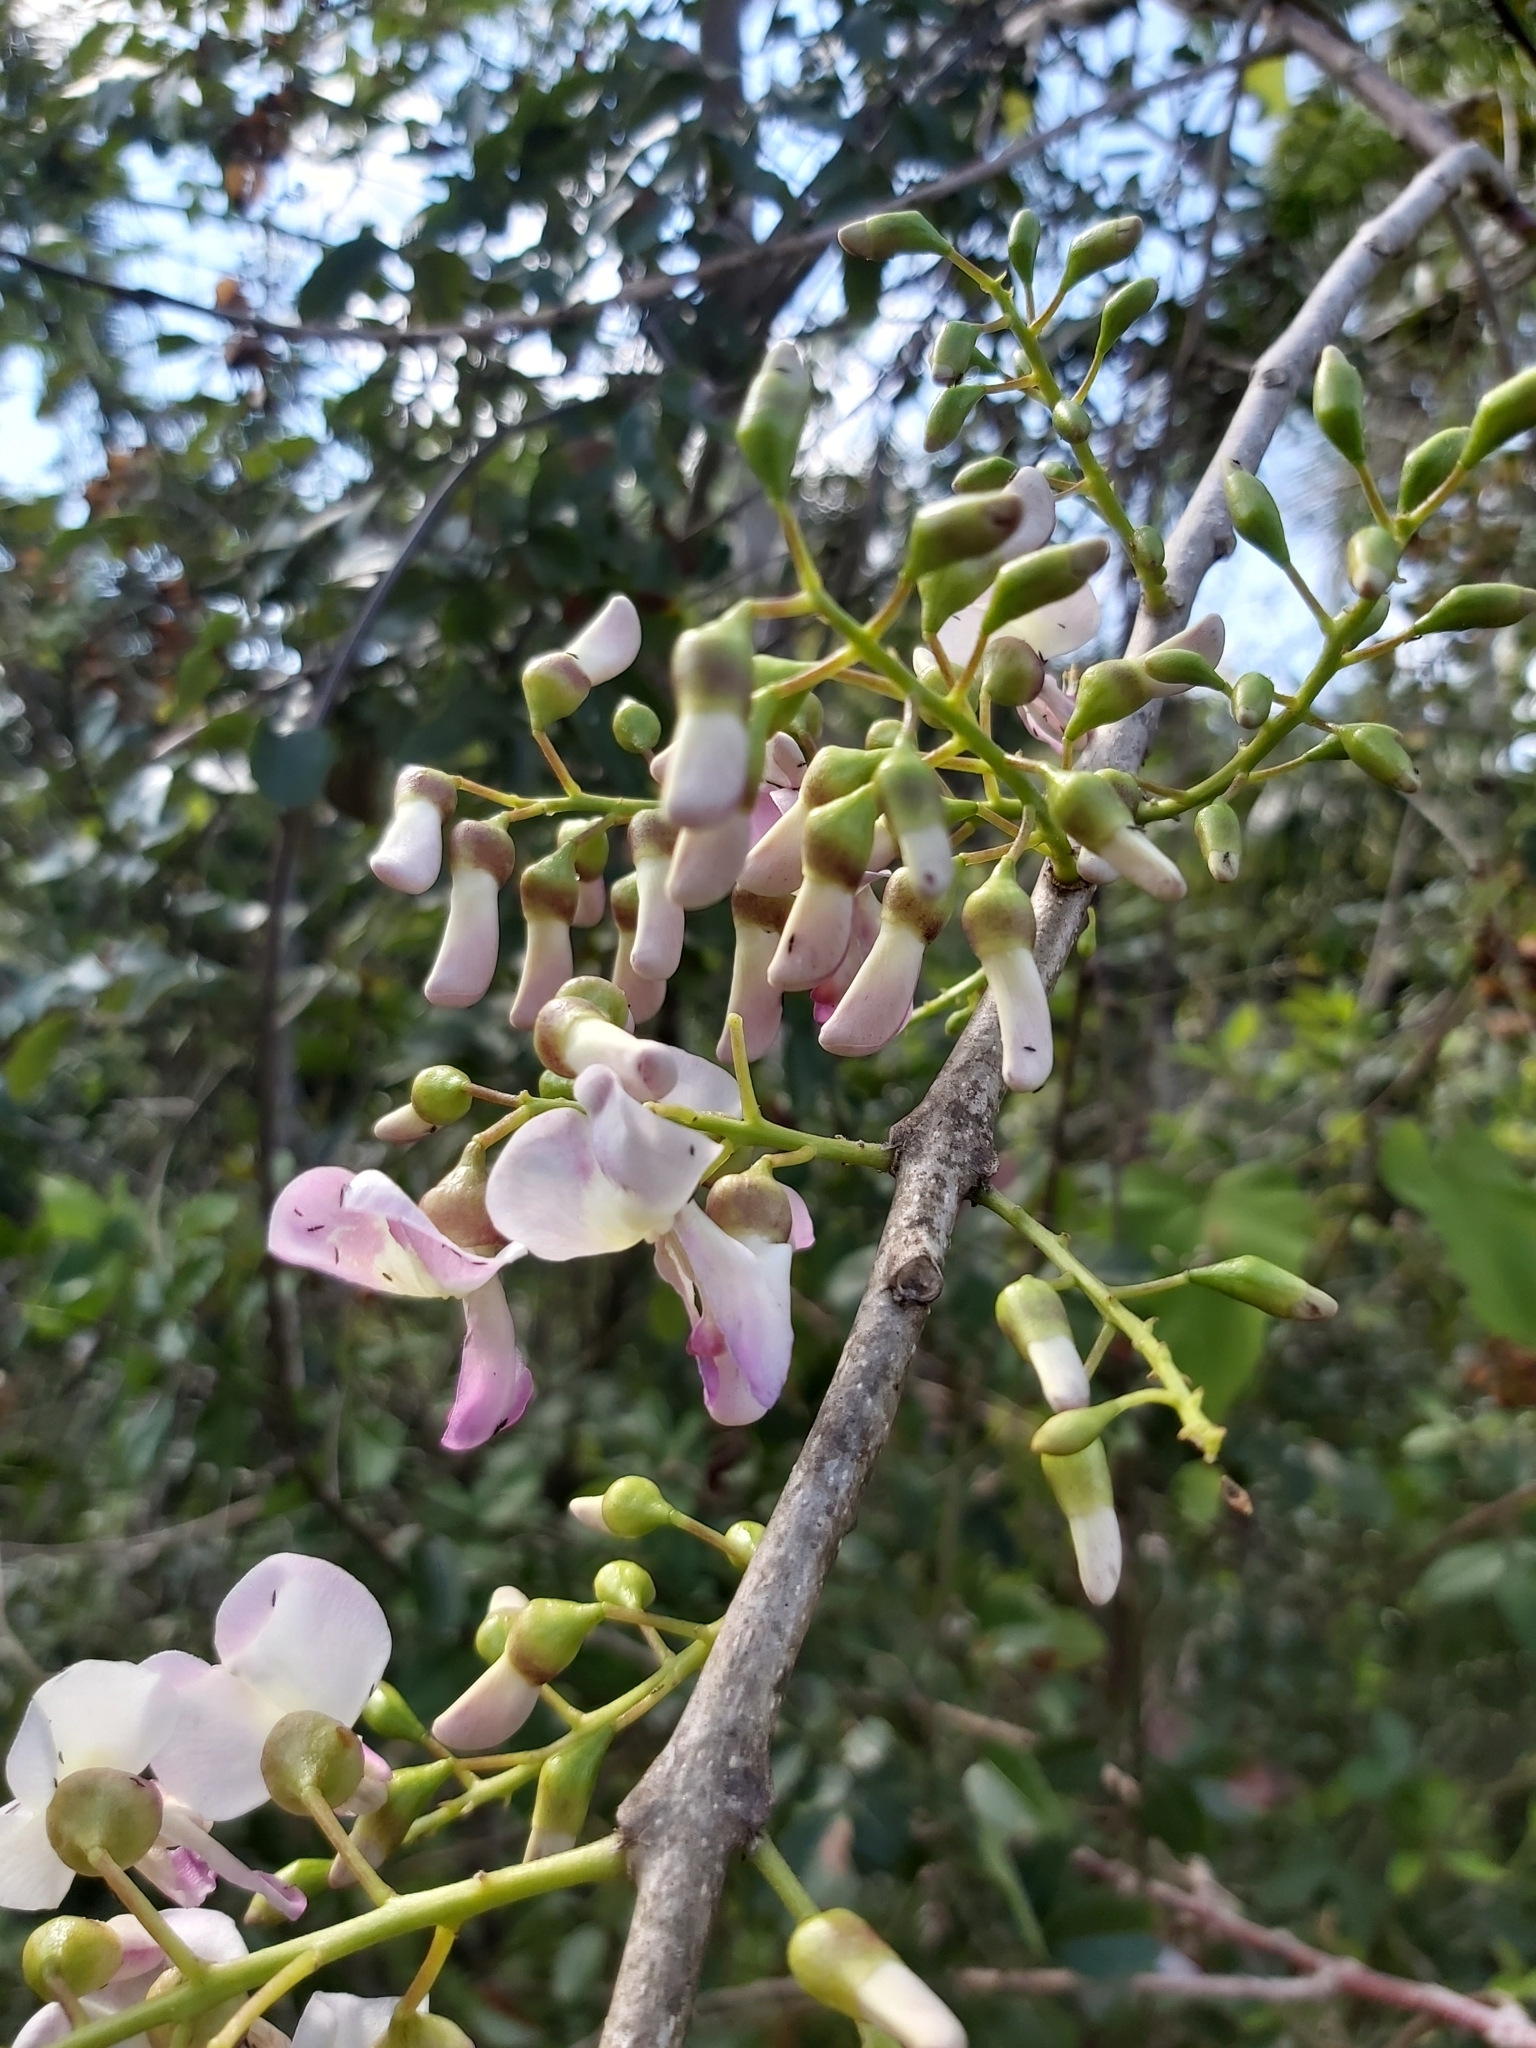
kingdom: Plantae
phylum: Tracheophyta
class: Magnoliopsida
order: Fabales
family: Fabaceae
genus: Gliricidia
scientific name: Gliricidia sepium
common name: Quickstick
